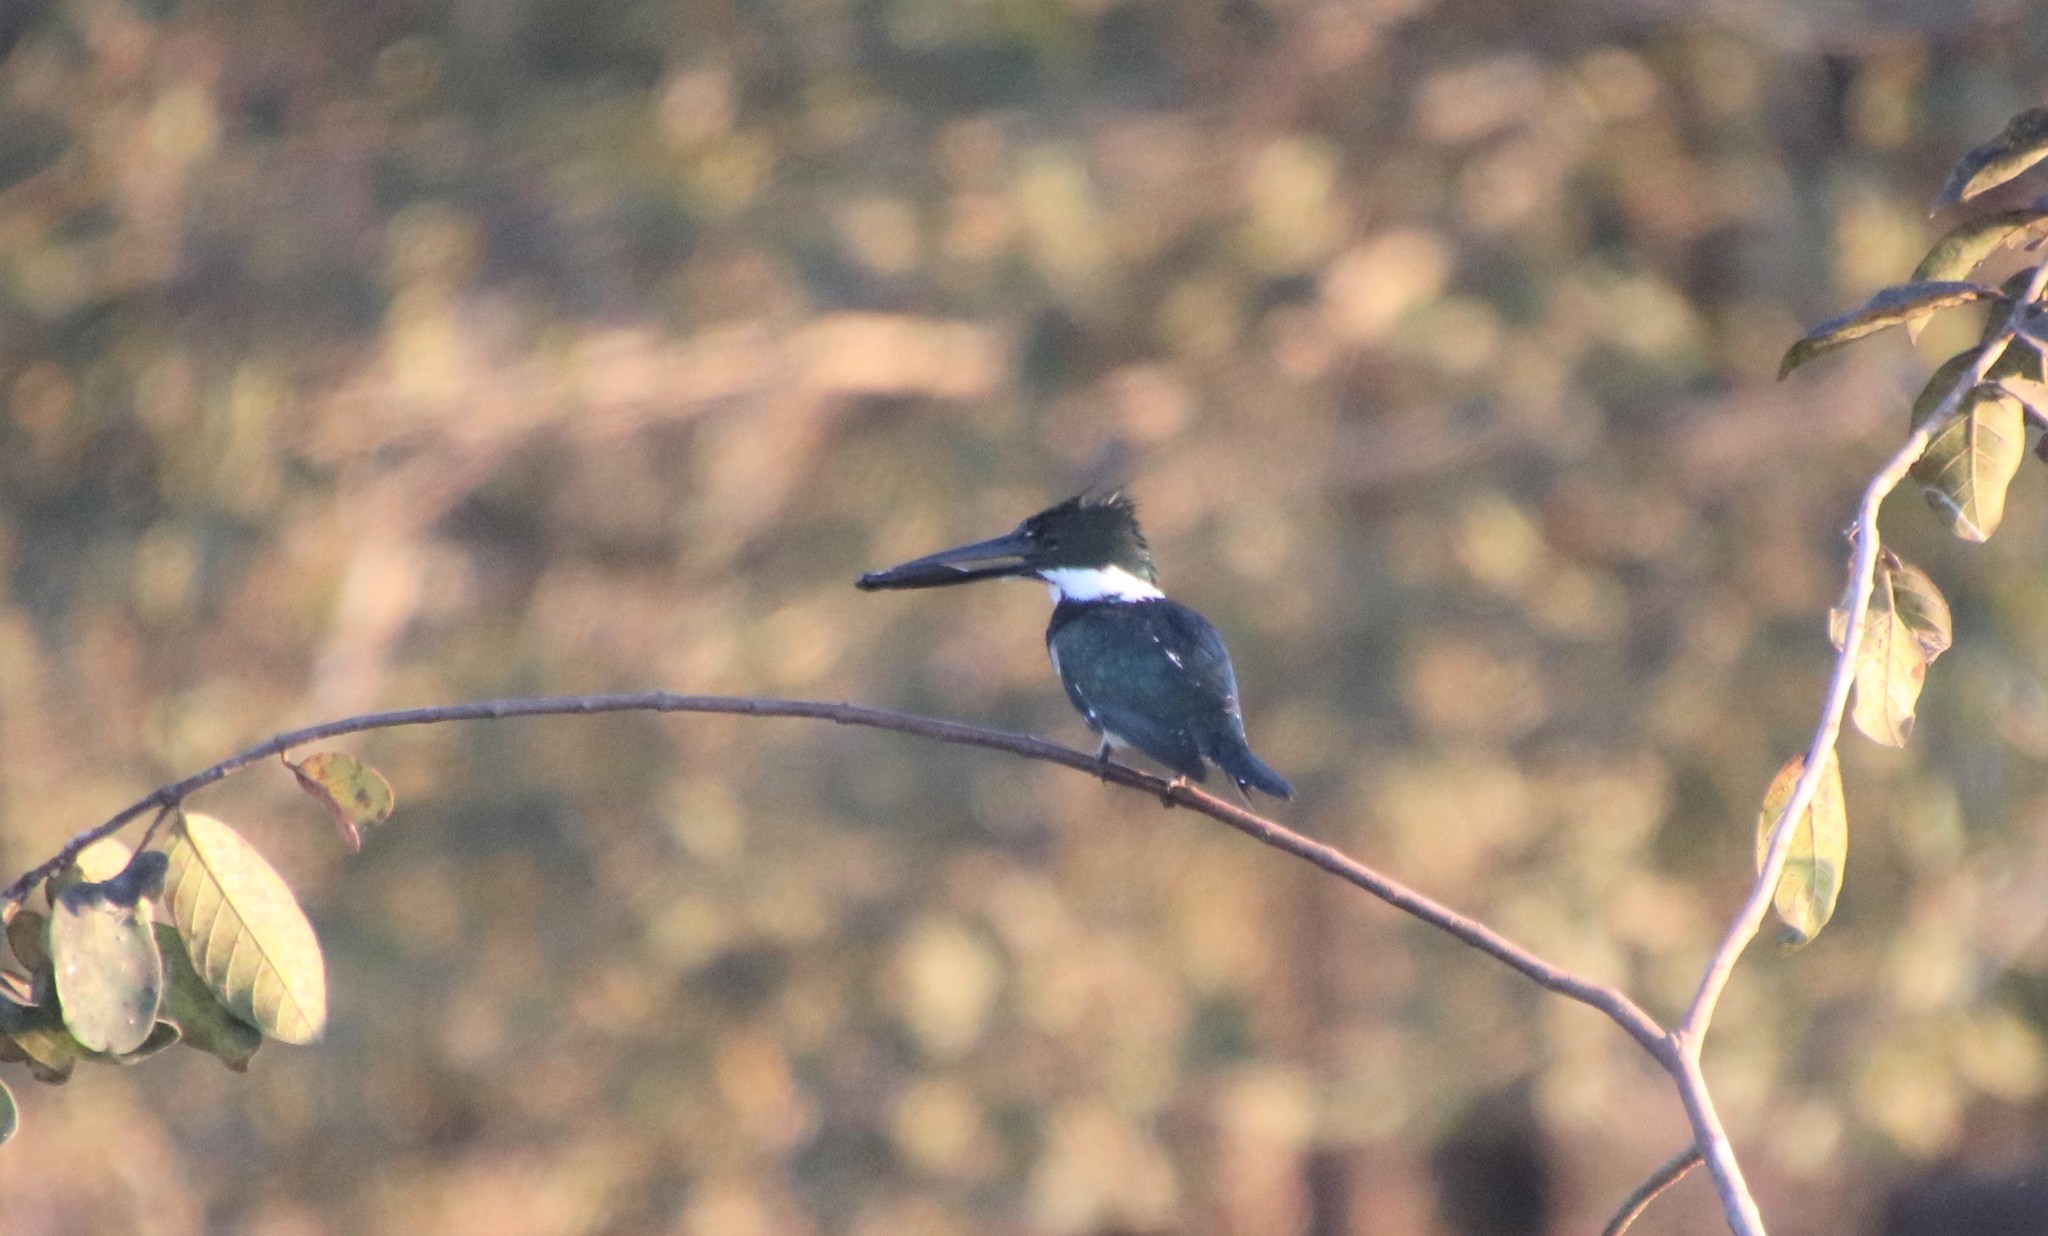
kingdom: Animalia
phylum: Chordata
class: Aves
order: Coraciiformes
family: Alcedinidae
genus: Chloroceryle
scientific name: Chloroceryle amazona
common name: Amazon kingfisher
